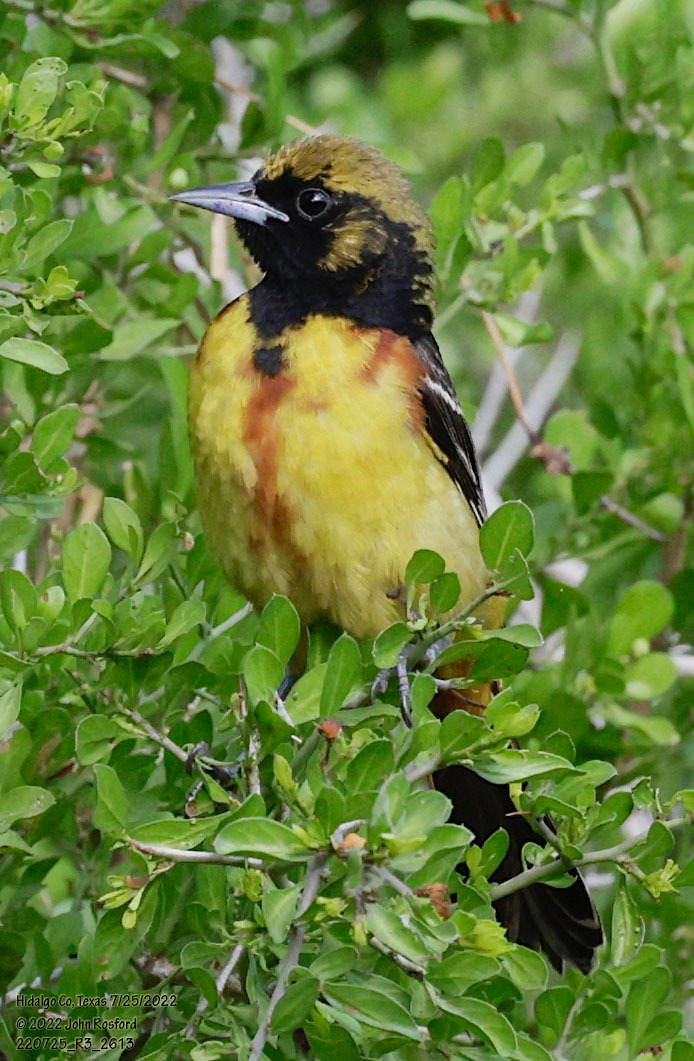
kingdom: Animalia
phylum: Chordata
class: Aves
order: Passeriformes
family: Icteridae
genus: Icterus
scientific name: Icterus spurius
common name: Orchard oriole
